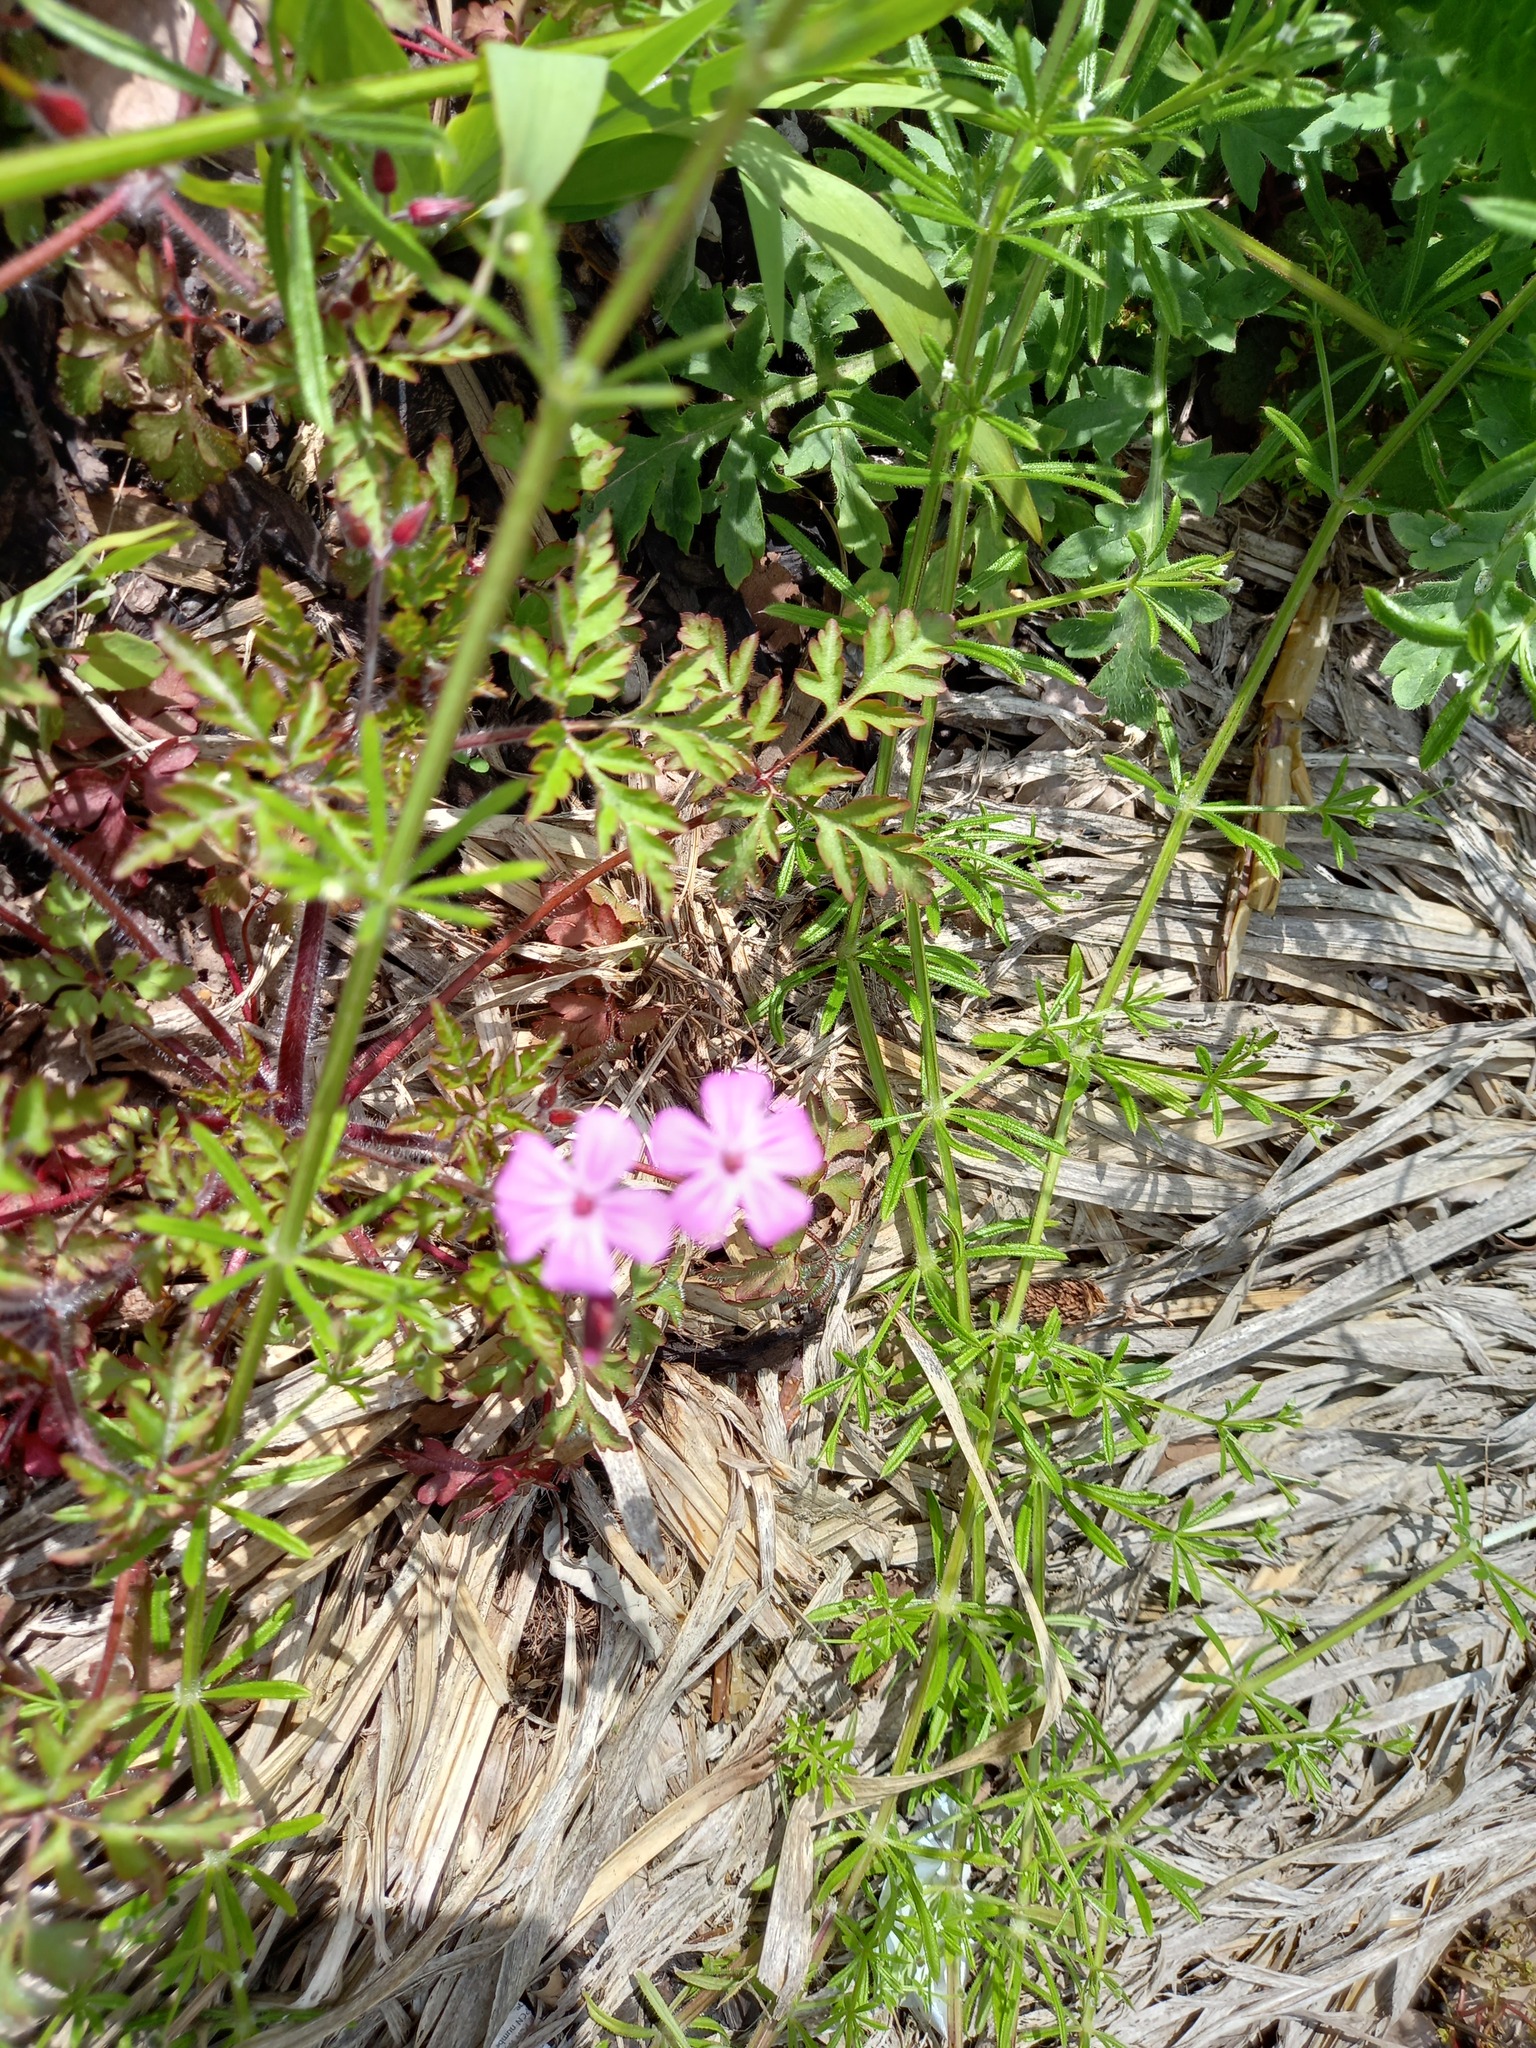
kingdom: Plantae
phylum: Tracheophyta
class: Magnoliopsida
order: Geraniales
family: Geraniaceae
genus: Geranium
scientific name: Geranium robertianum
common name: Herb-robert
